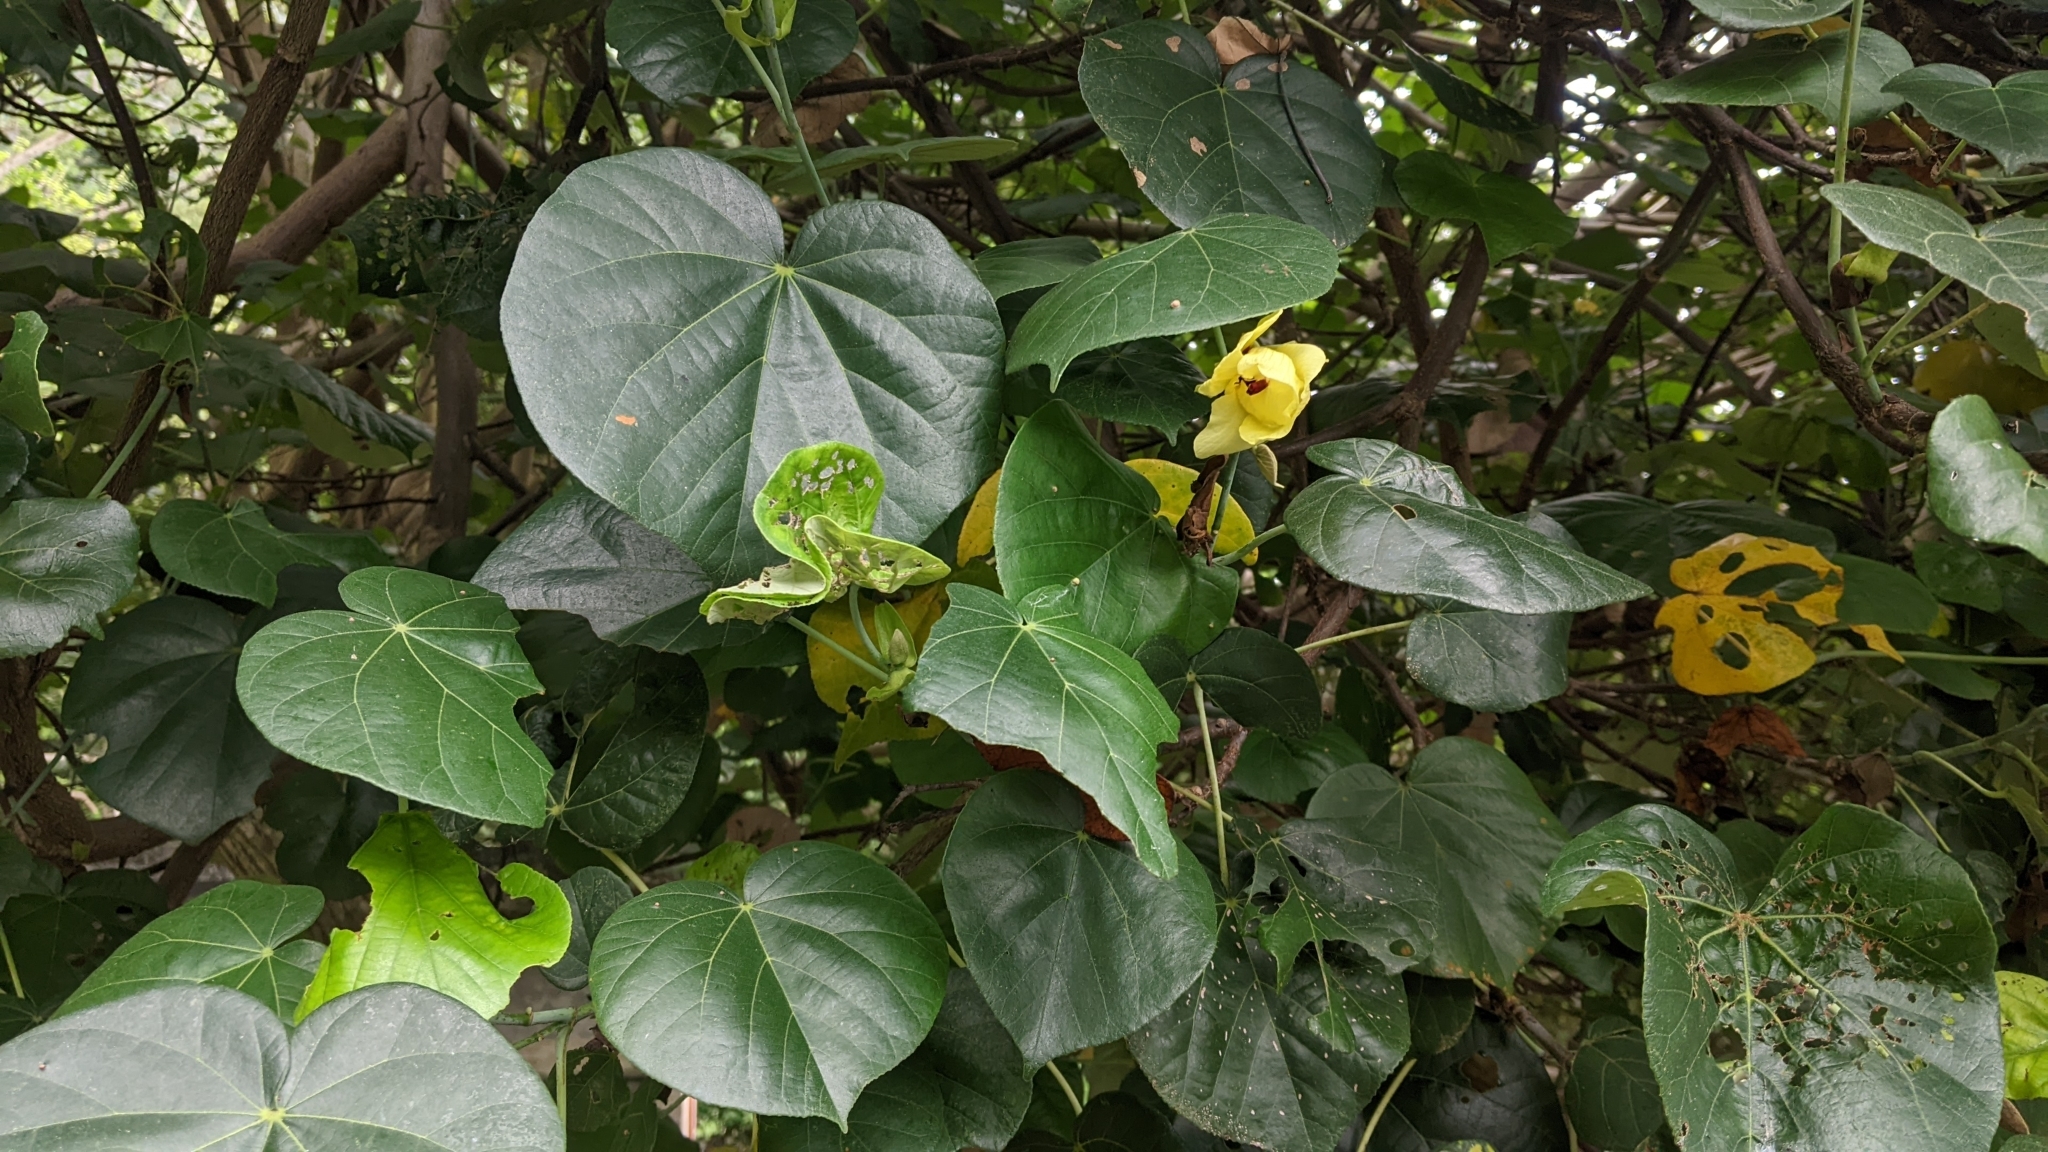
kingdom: Plantae
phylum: Tracheophyta
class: Magnoliopsida
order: Malvales
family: Malvaceae
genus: Talipariti
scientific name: Talipariti tiliaceum
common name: Sea hibiscus
